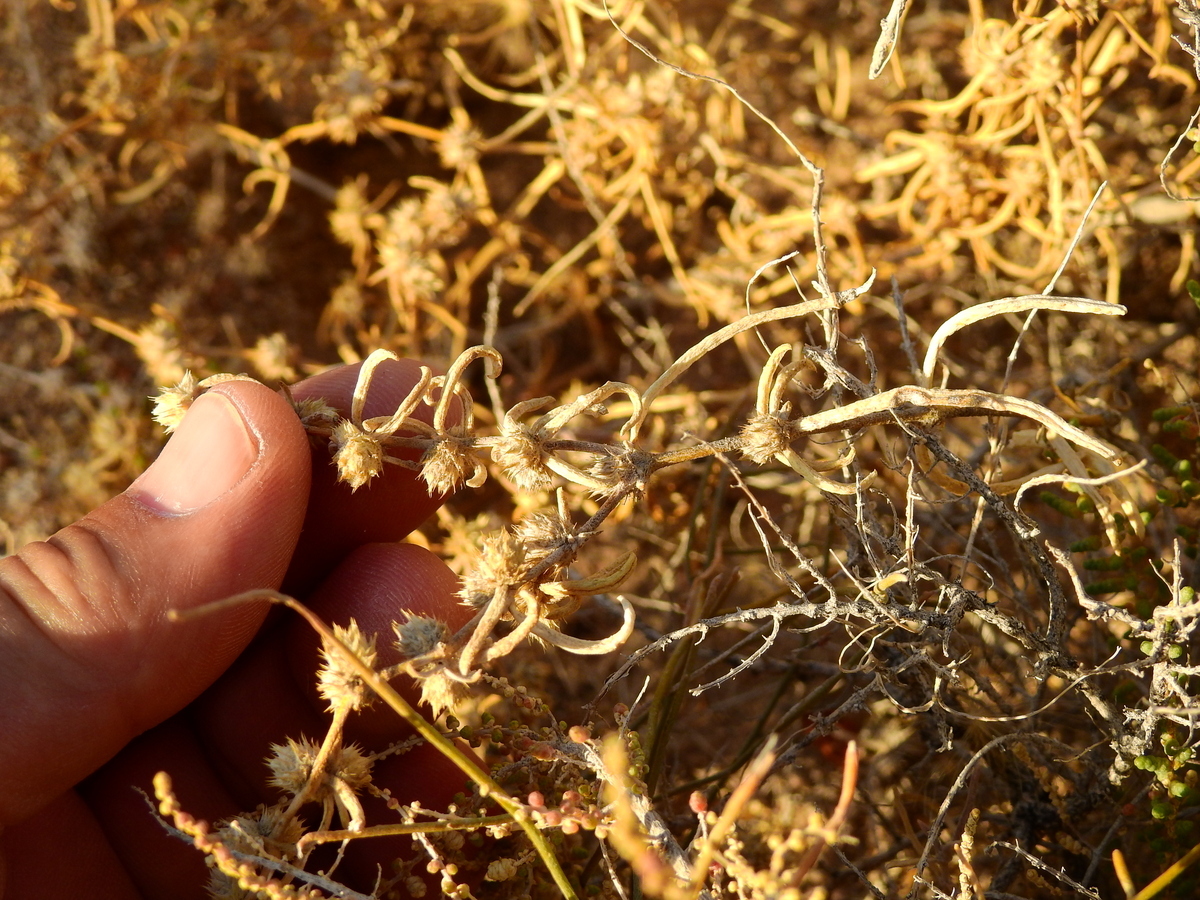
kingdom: Plantae
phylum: Tracheophyta
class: Magnoliopsida
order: Caryophyllales
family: Amaranthaceae
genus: Alternanthera
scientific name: Alternanthera nodifera
